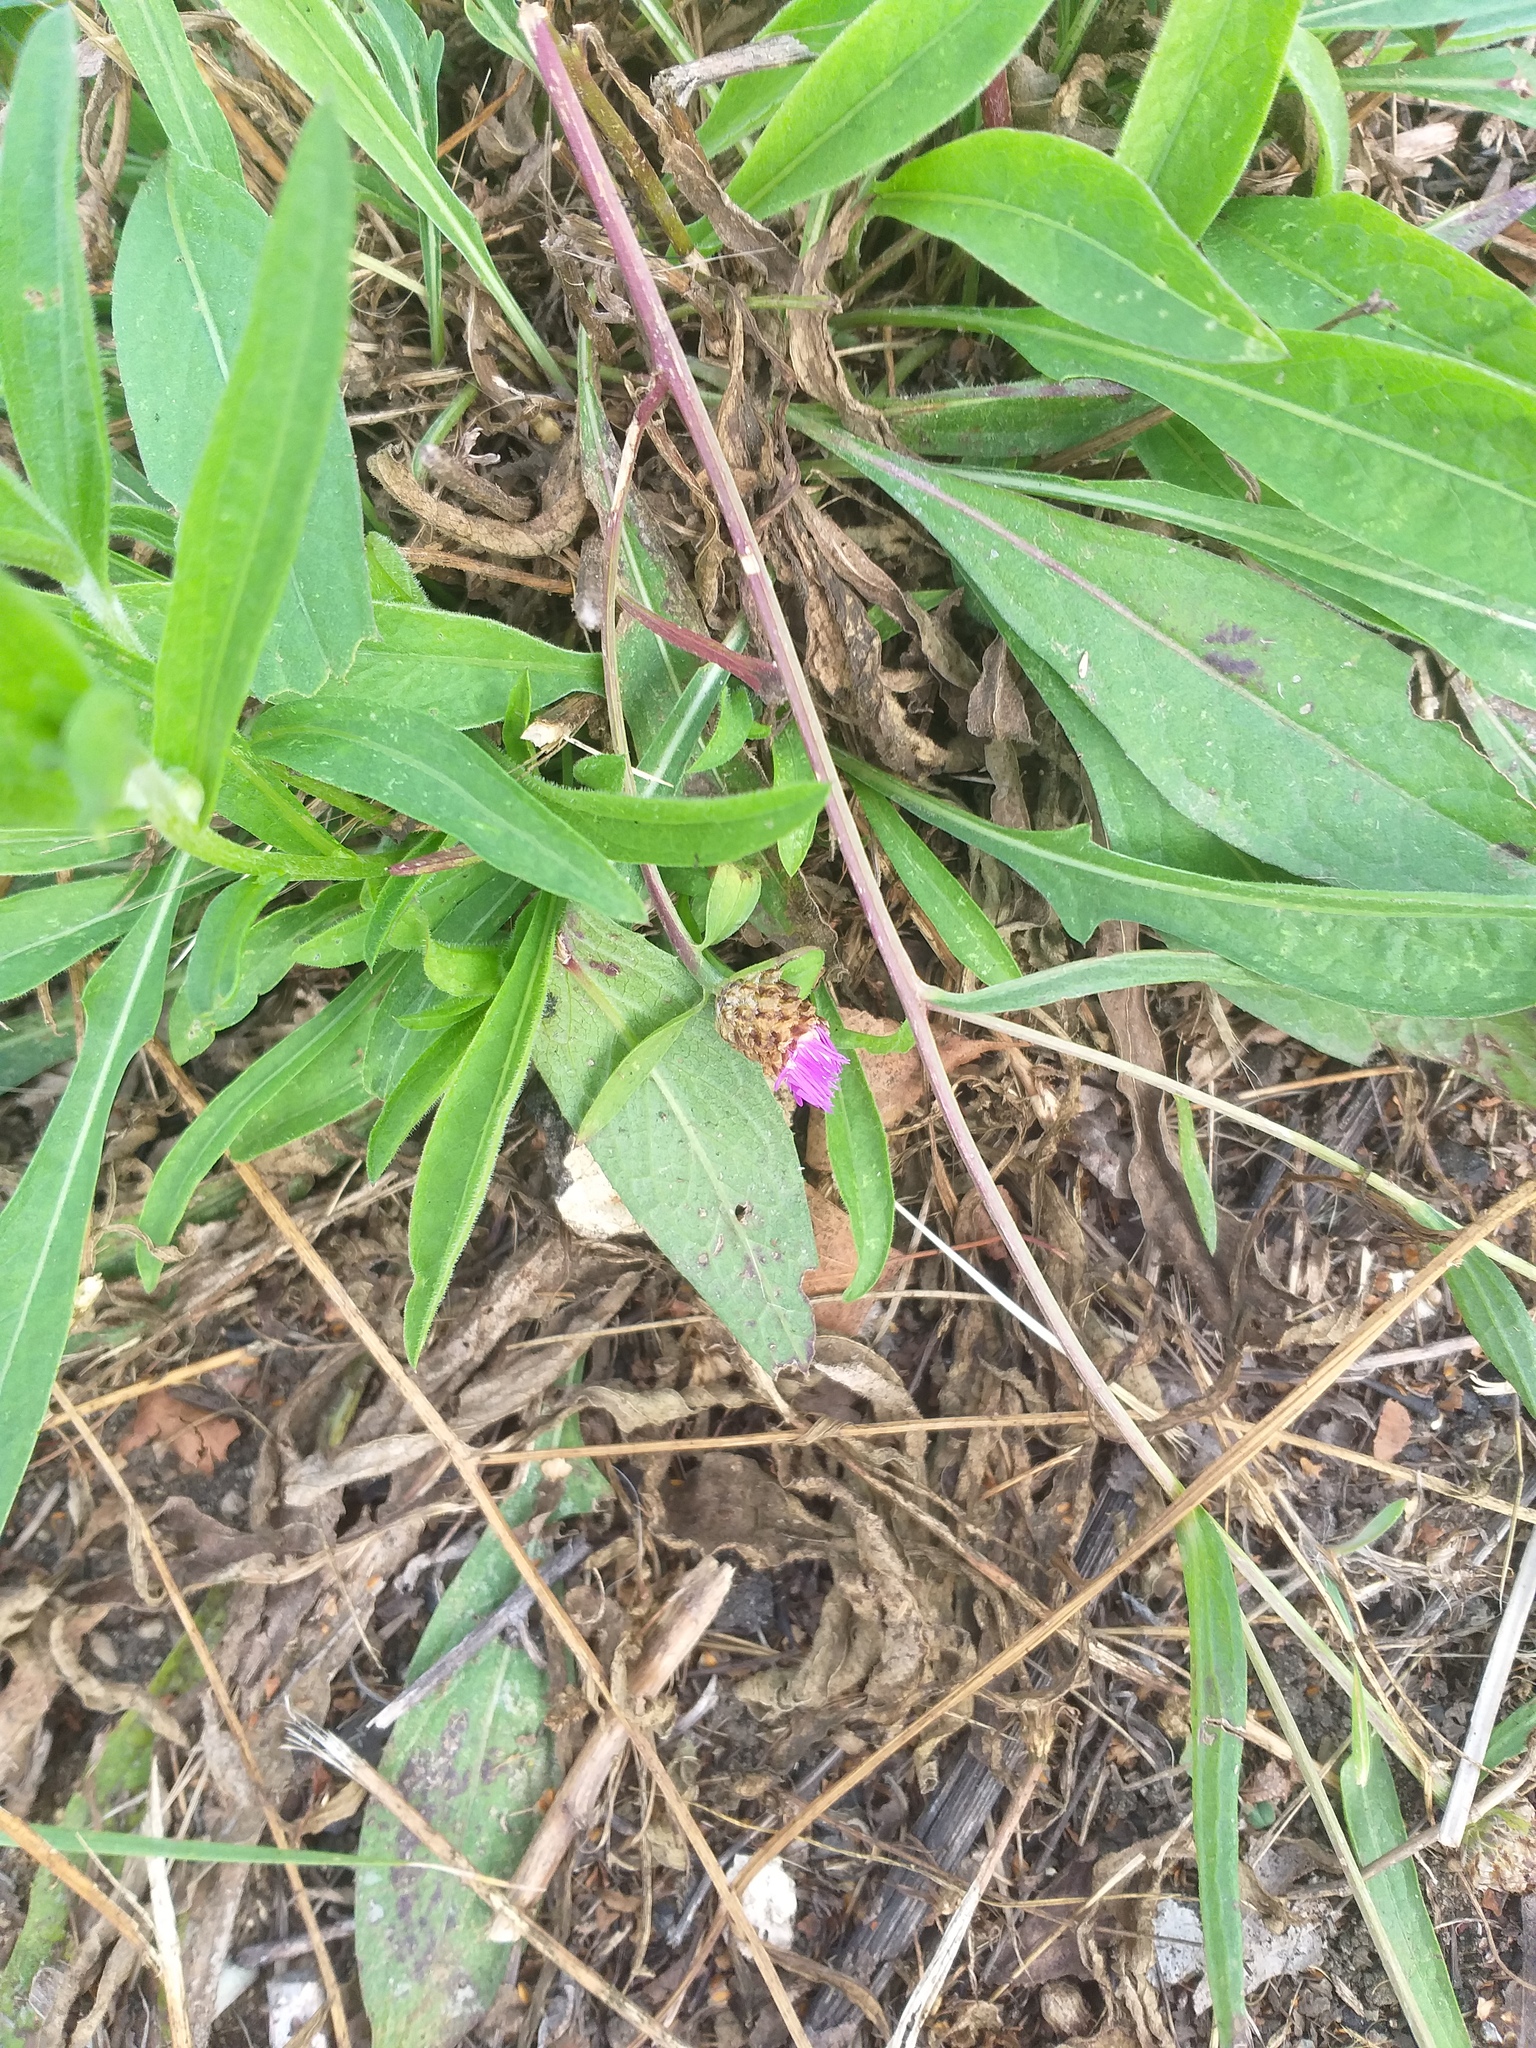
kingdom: Plantae
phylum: Tracheophyta
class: Magnoliopsida
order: Asterales
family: Asteraceae
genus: Centaurea
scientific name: Centaurea jacea
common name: Brown knapweed
